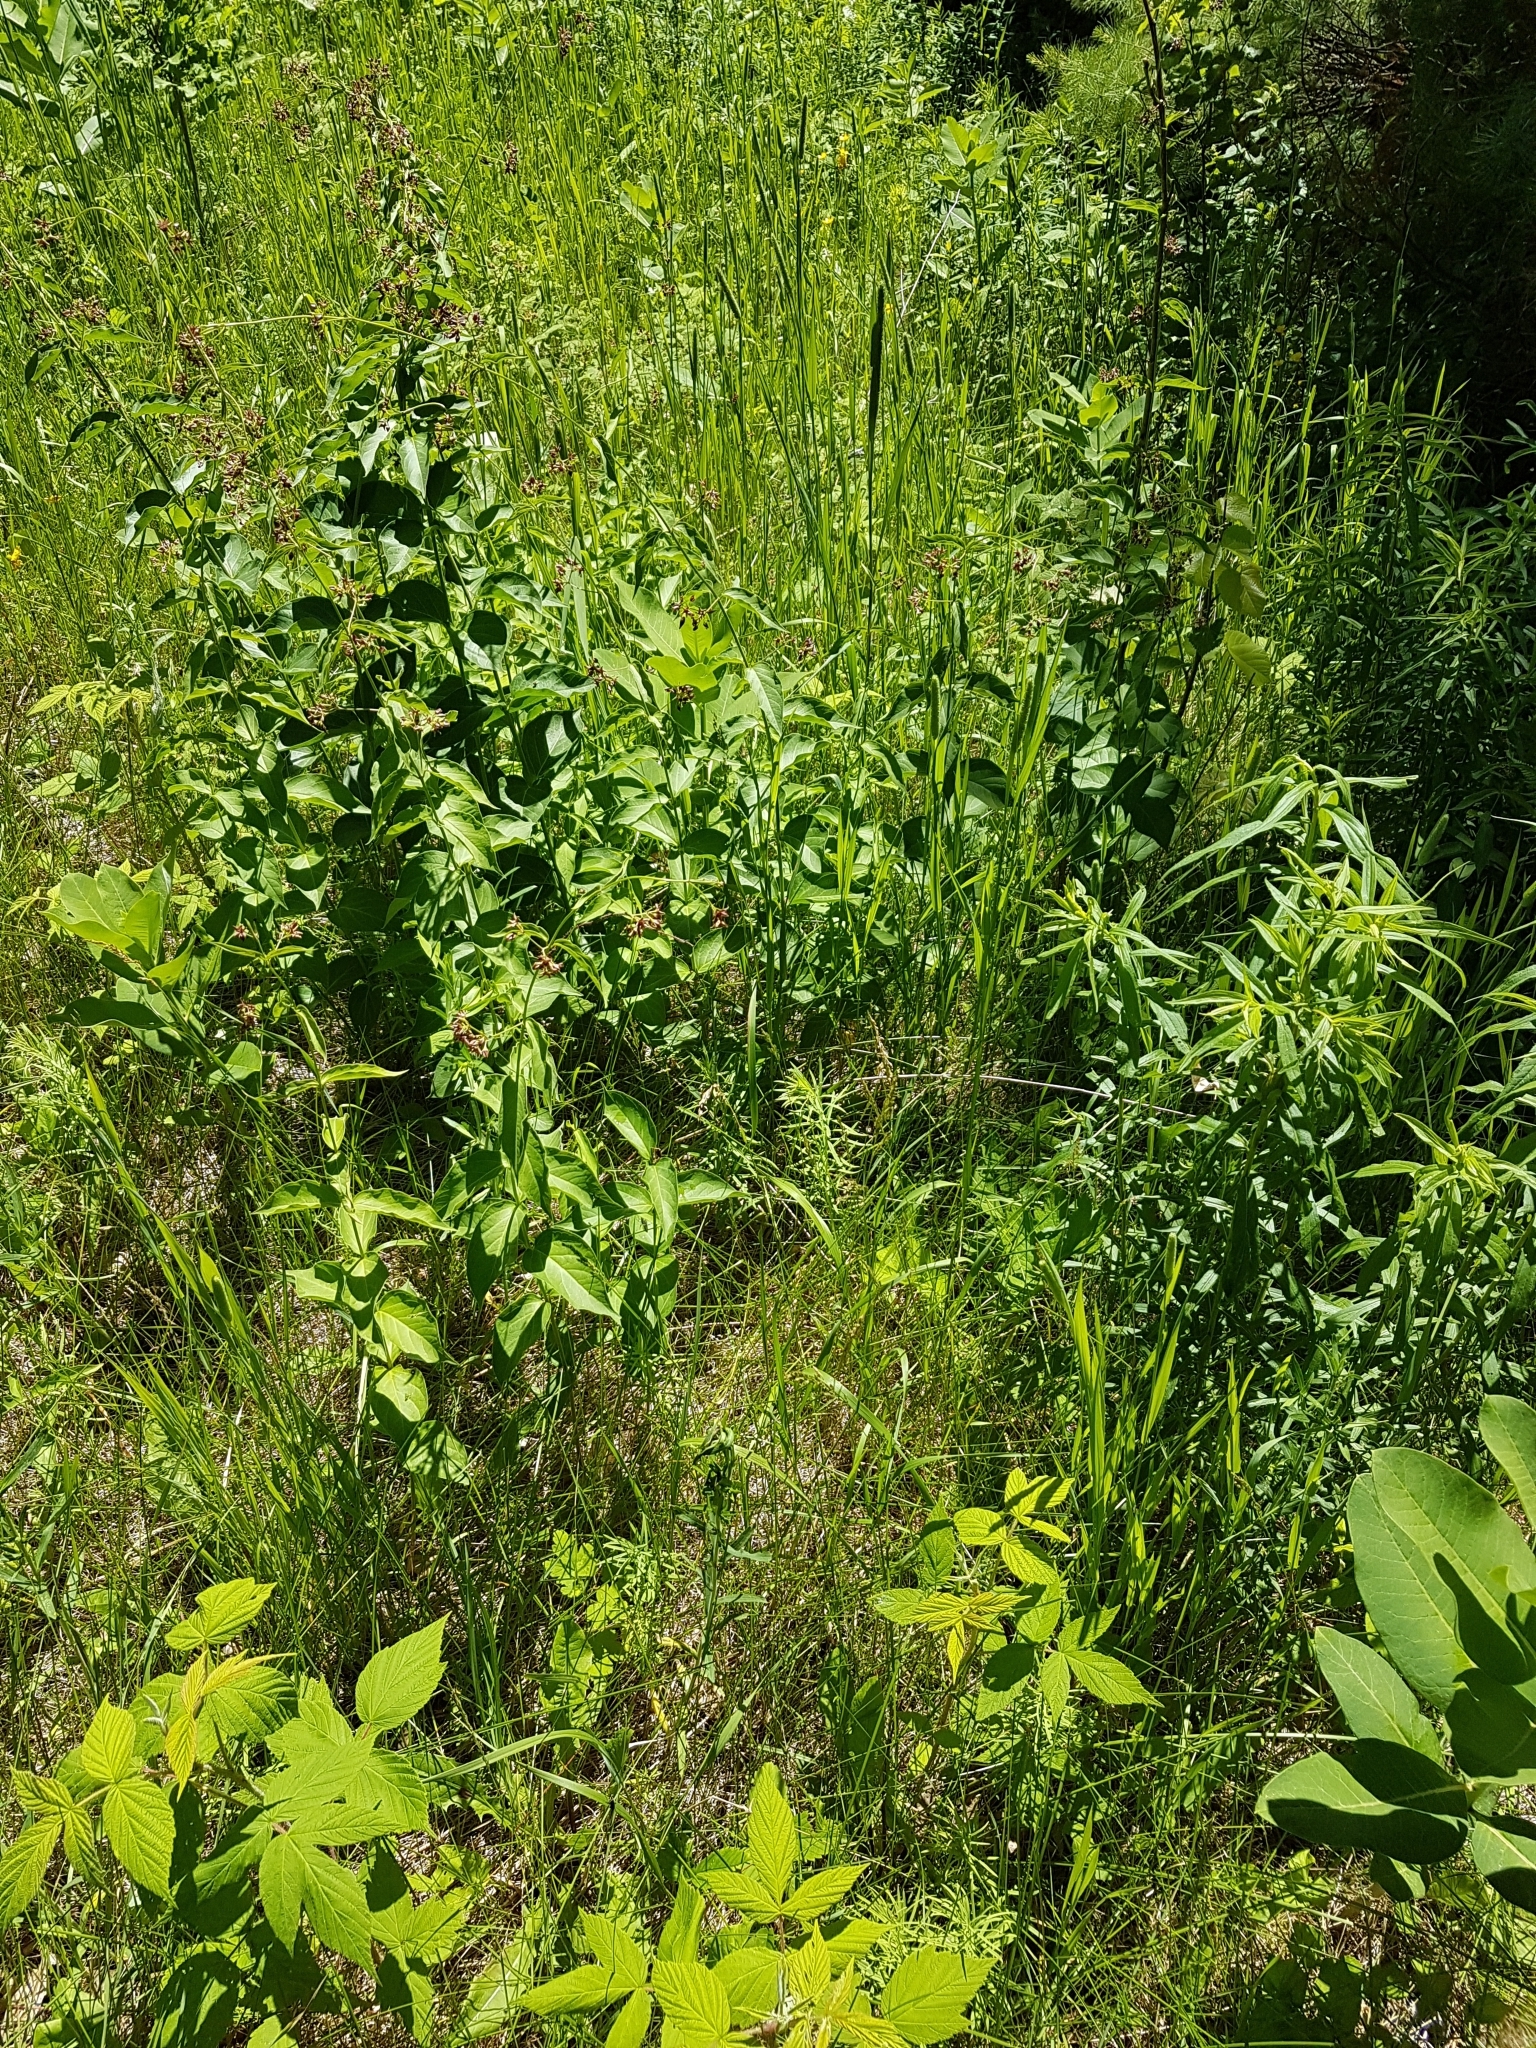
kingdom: Plantae
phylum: Tracheophyta
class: Magnoliopsida
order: Gentianales
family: Apocynaceae
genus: Vincetoxicum
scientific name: Vincetoxicum rossicum
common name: Dog-strangling vine
